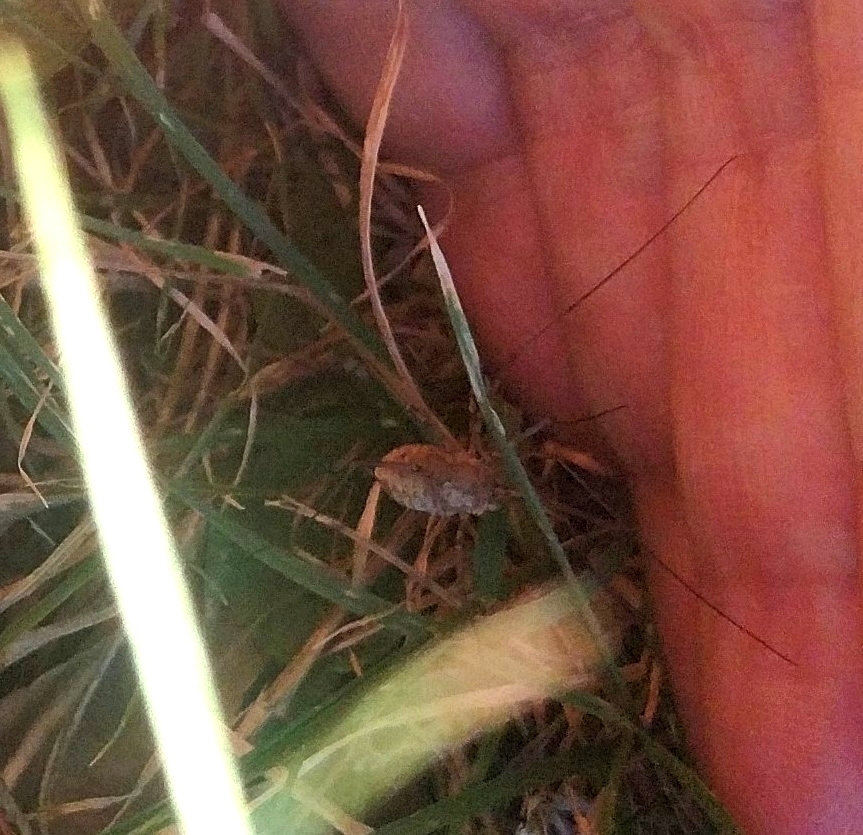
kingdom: Animalia
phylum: Arthropoda
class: Arachnida
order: Opiliones
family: Phalangiidae
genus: Phalangium
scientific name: Phalangium opilio
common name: Daddy longleg
